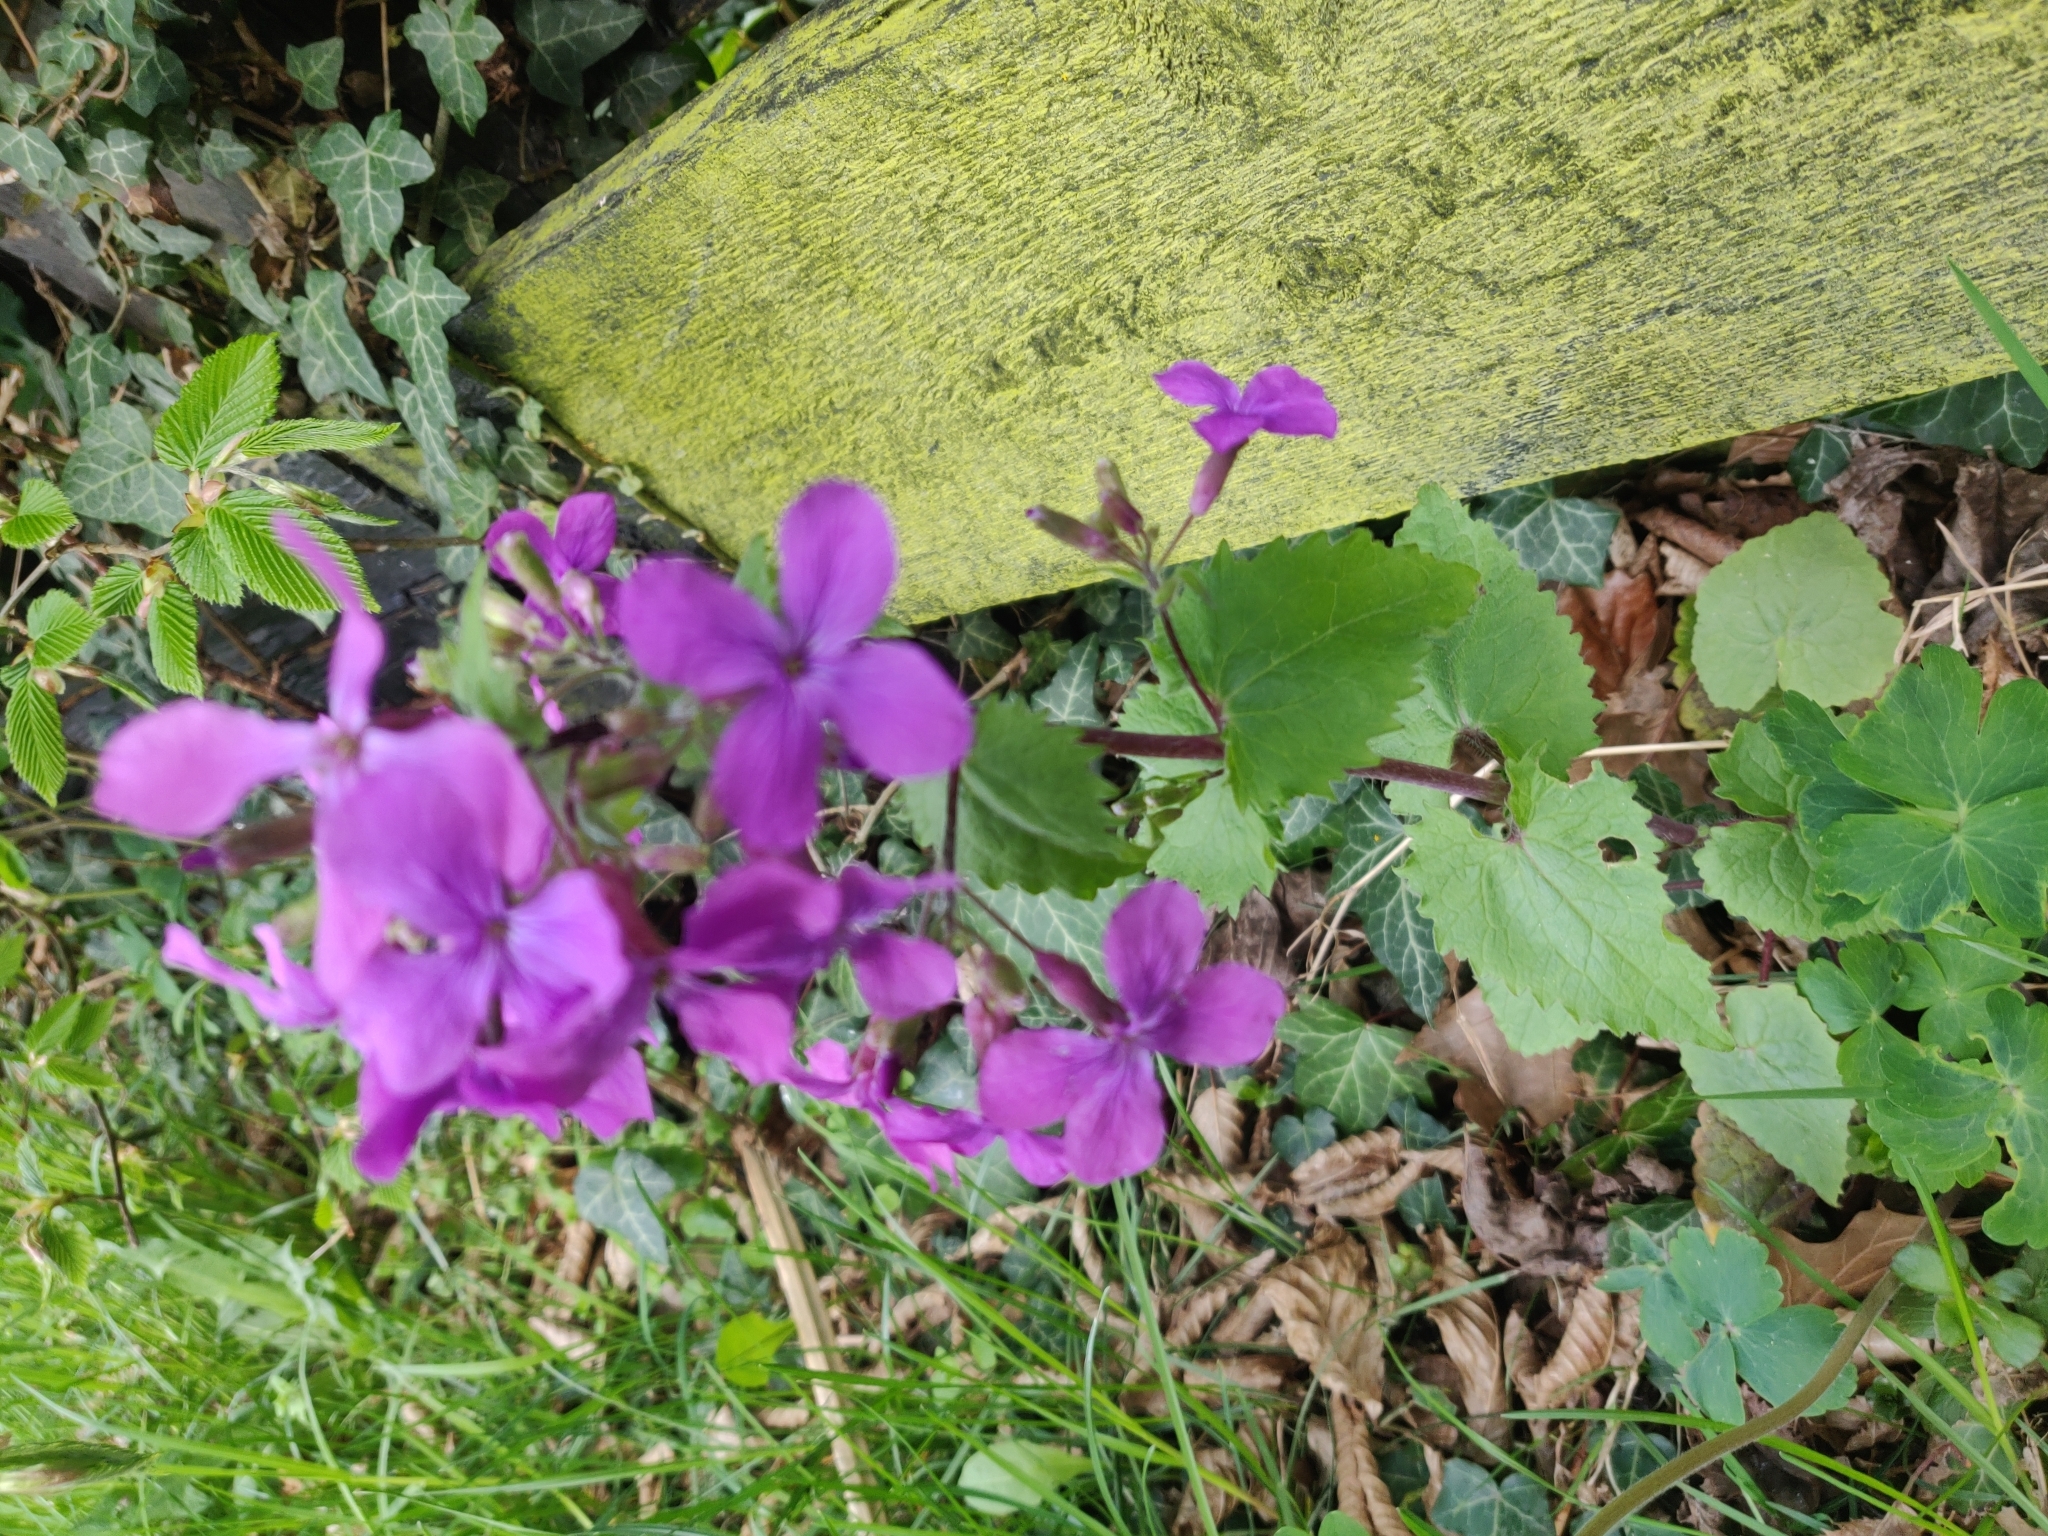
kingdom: Plantae
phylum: Tracheophyta
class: Magnoliopsida
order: Brassicales
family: Brassicaceae
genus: Lunaria
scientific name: Lunaria annua
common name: Honesty
